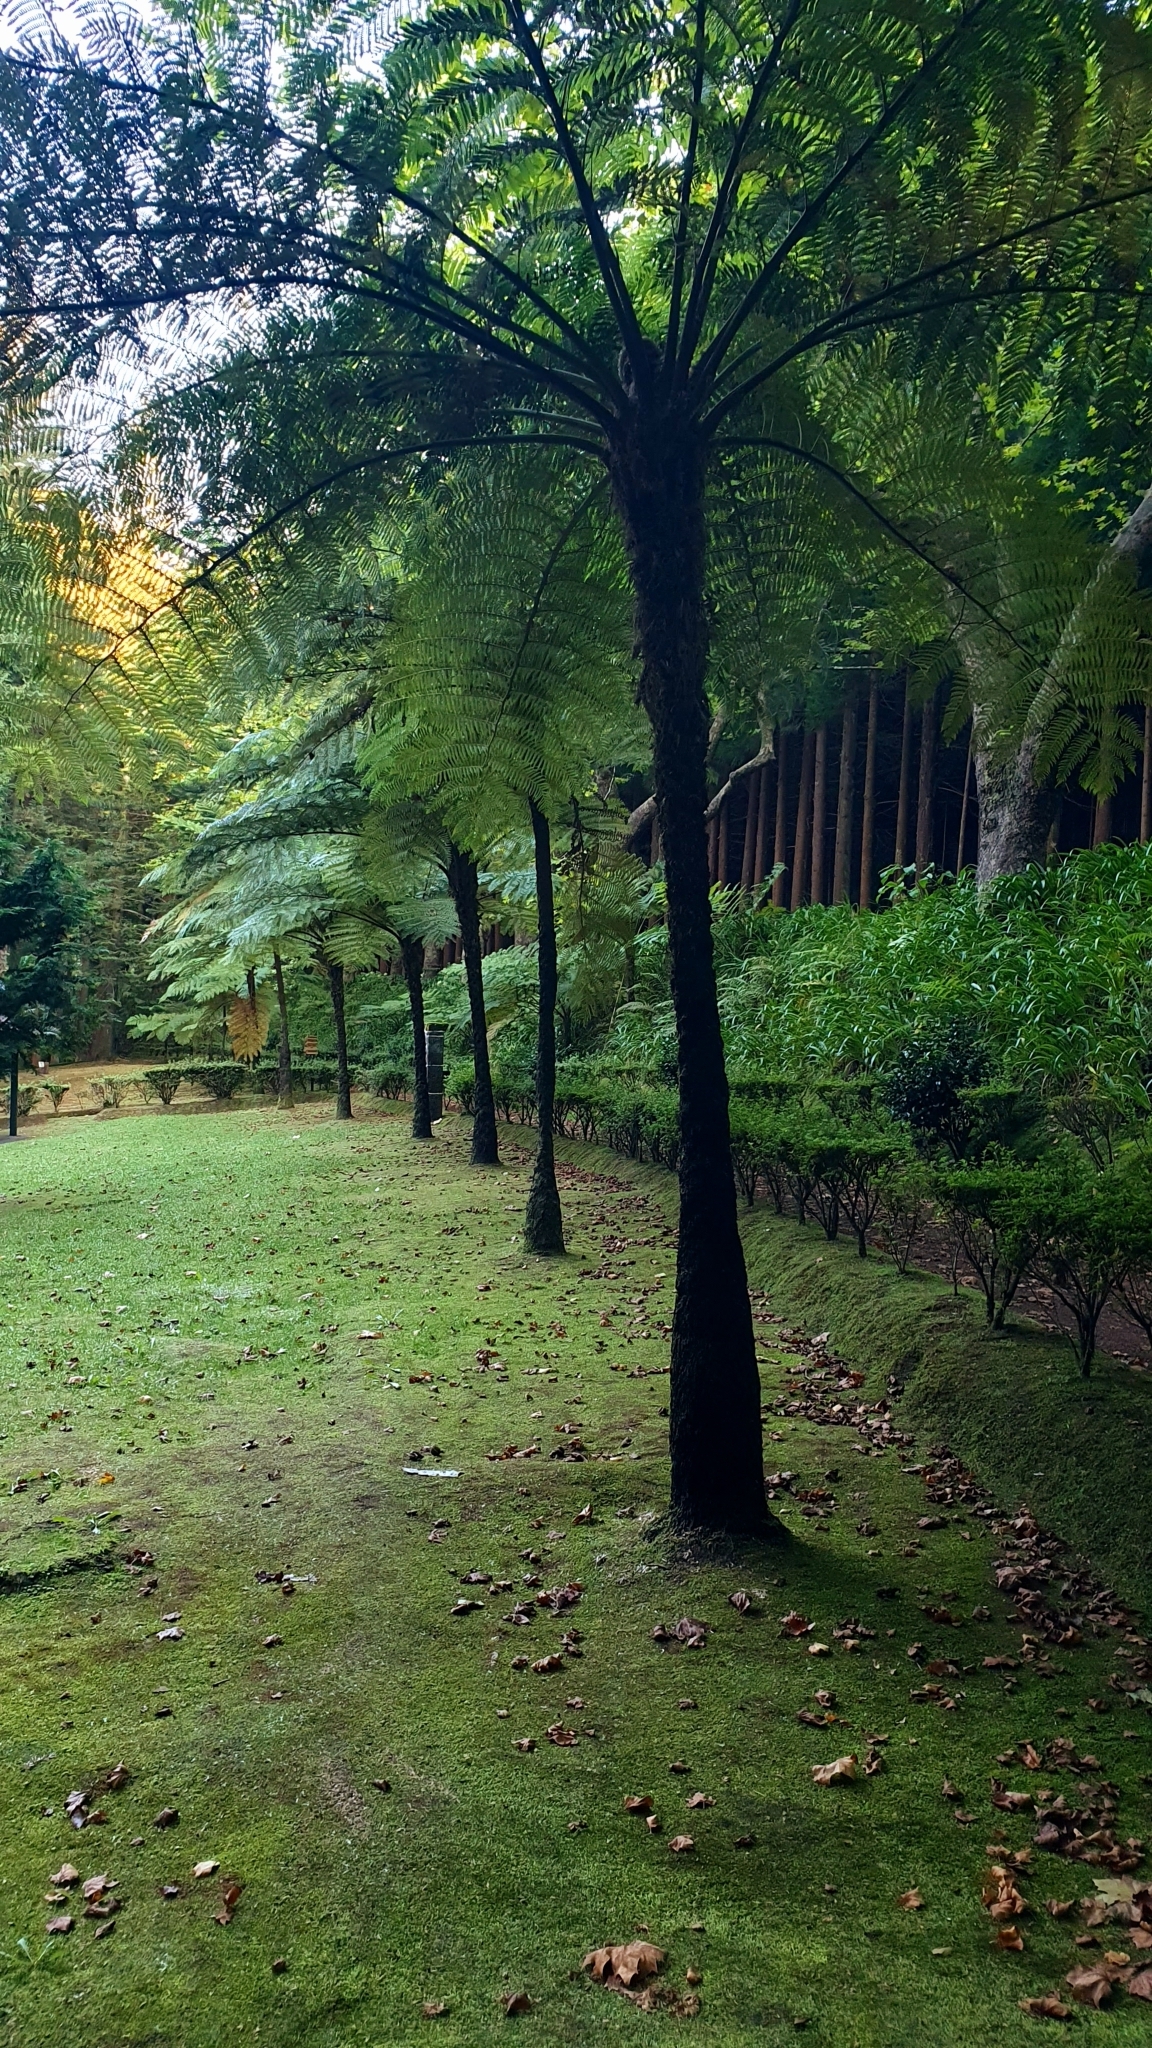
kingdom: Plantae
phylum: Tracheophyta
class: Polypodiopsida
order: Cyatheales
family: Cyatheaceae
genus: Sphaeropteris
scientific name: Sphaeropteris cooperi
